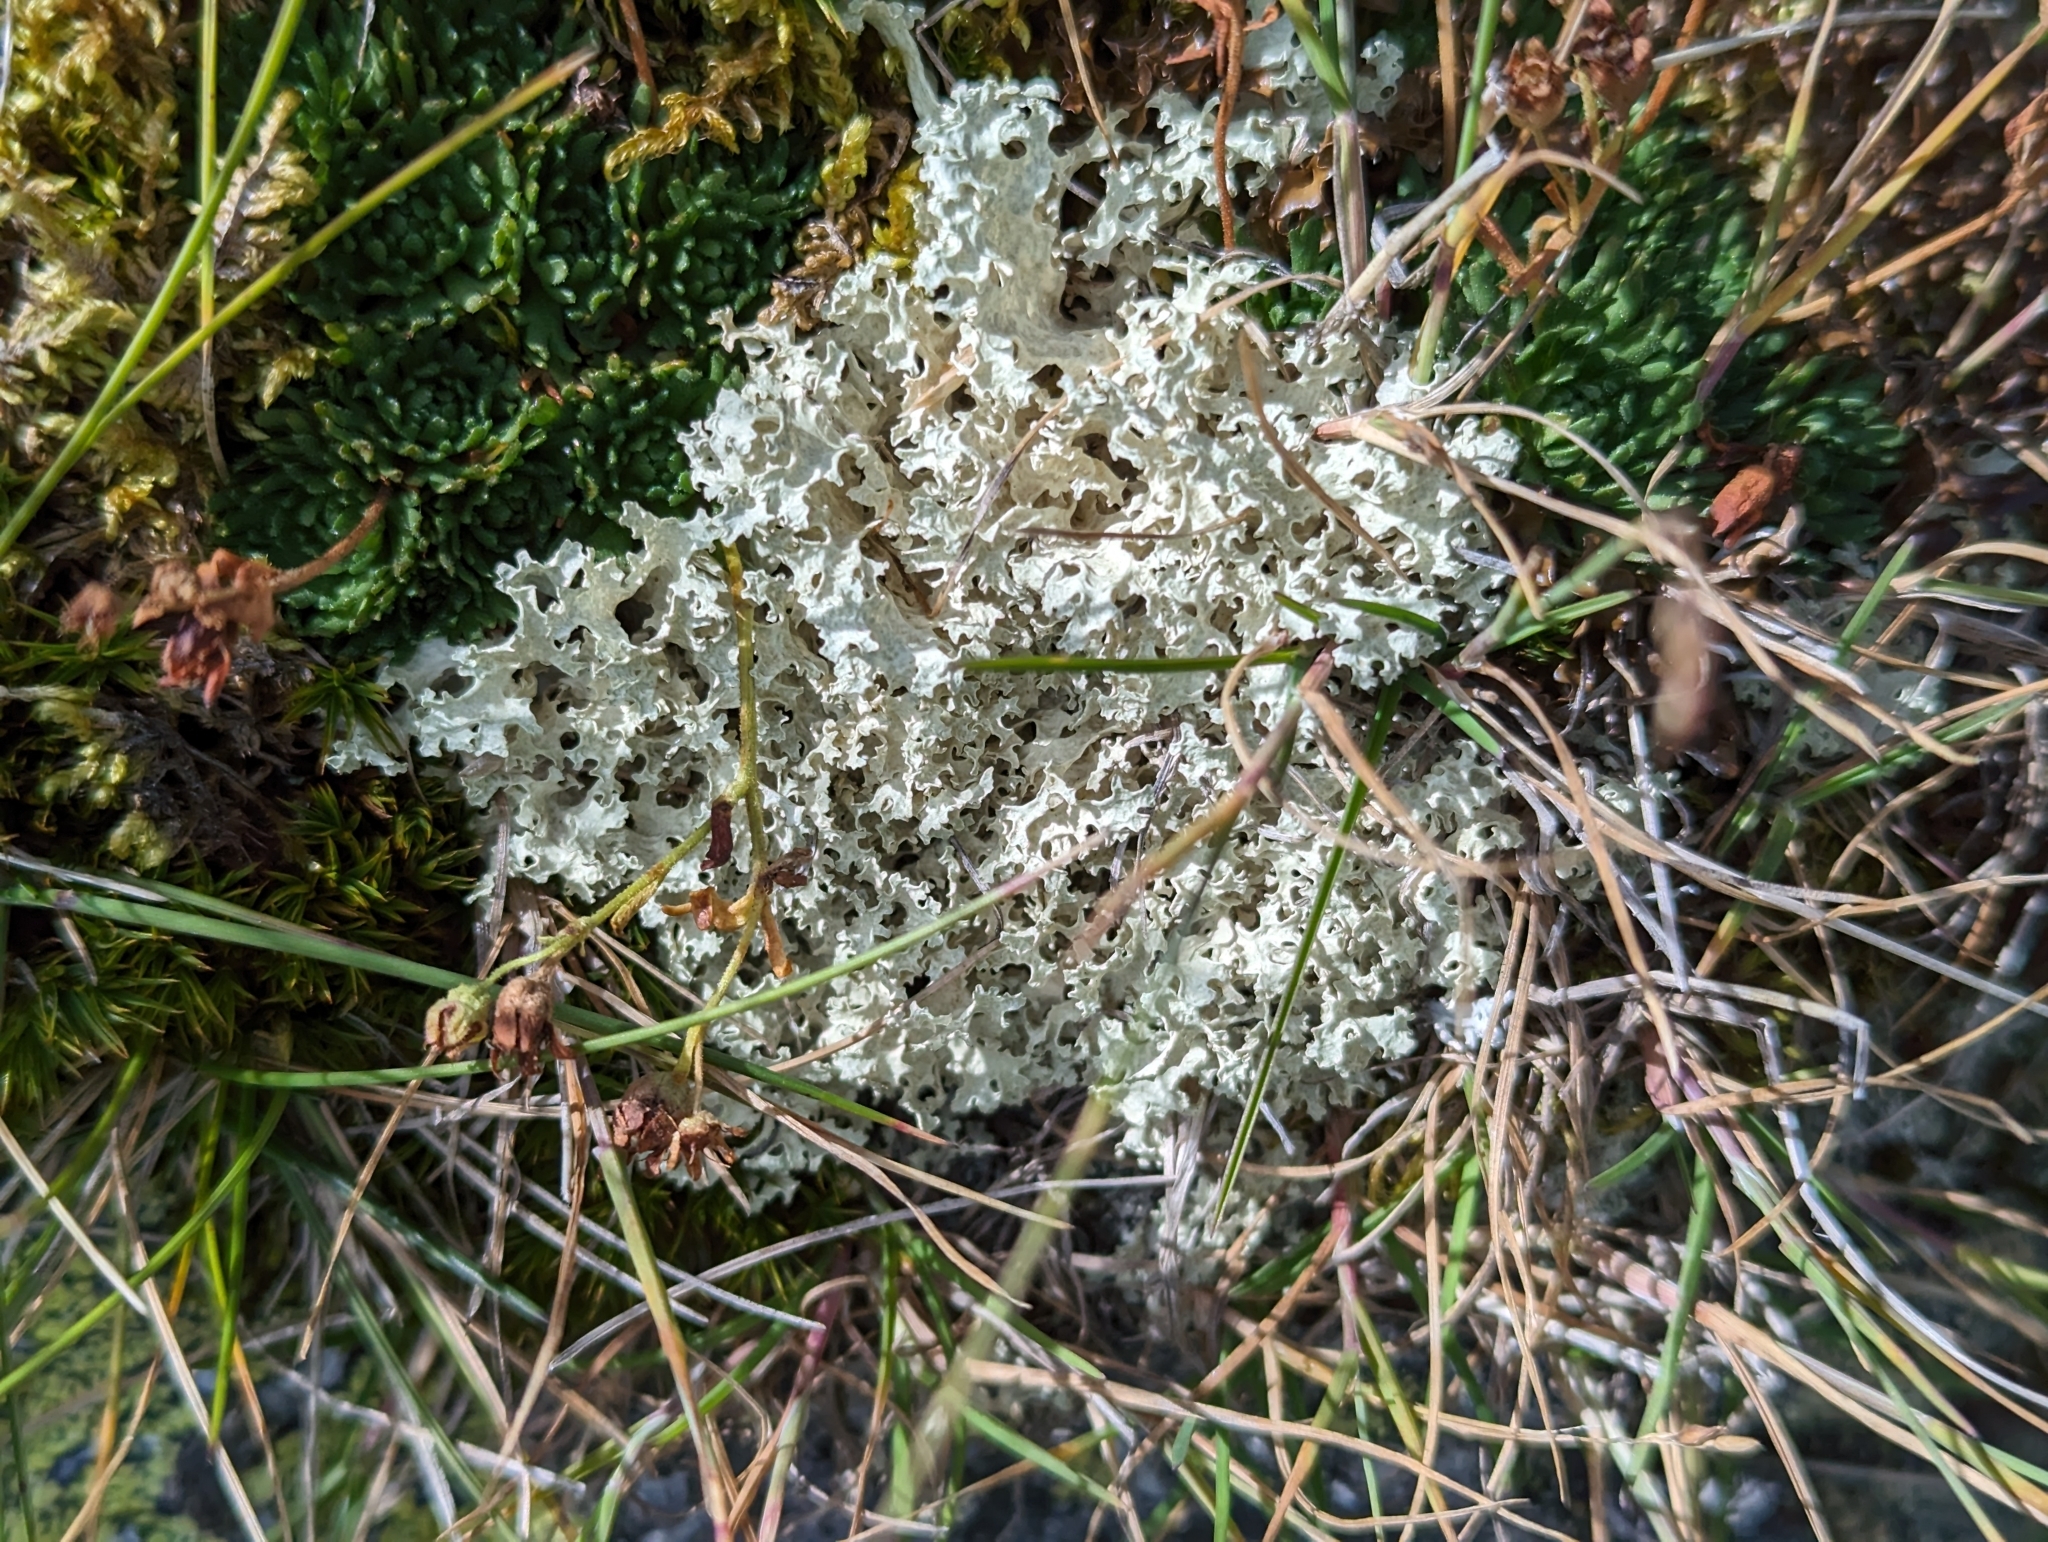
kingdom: Fungi
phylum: Ascomycota
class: Lecanoromycetes
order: Lecanorales
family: Parmeliaceae
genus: Nephromopsis
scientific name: Nephromopsis nivalis
